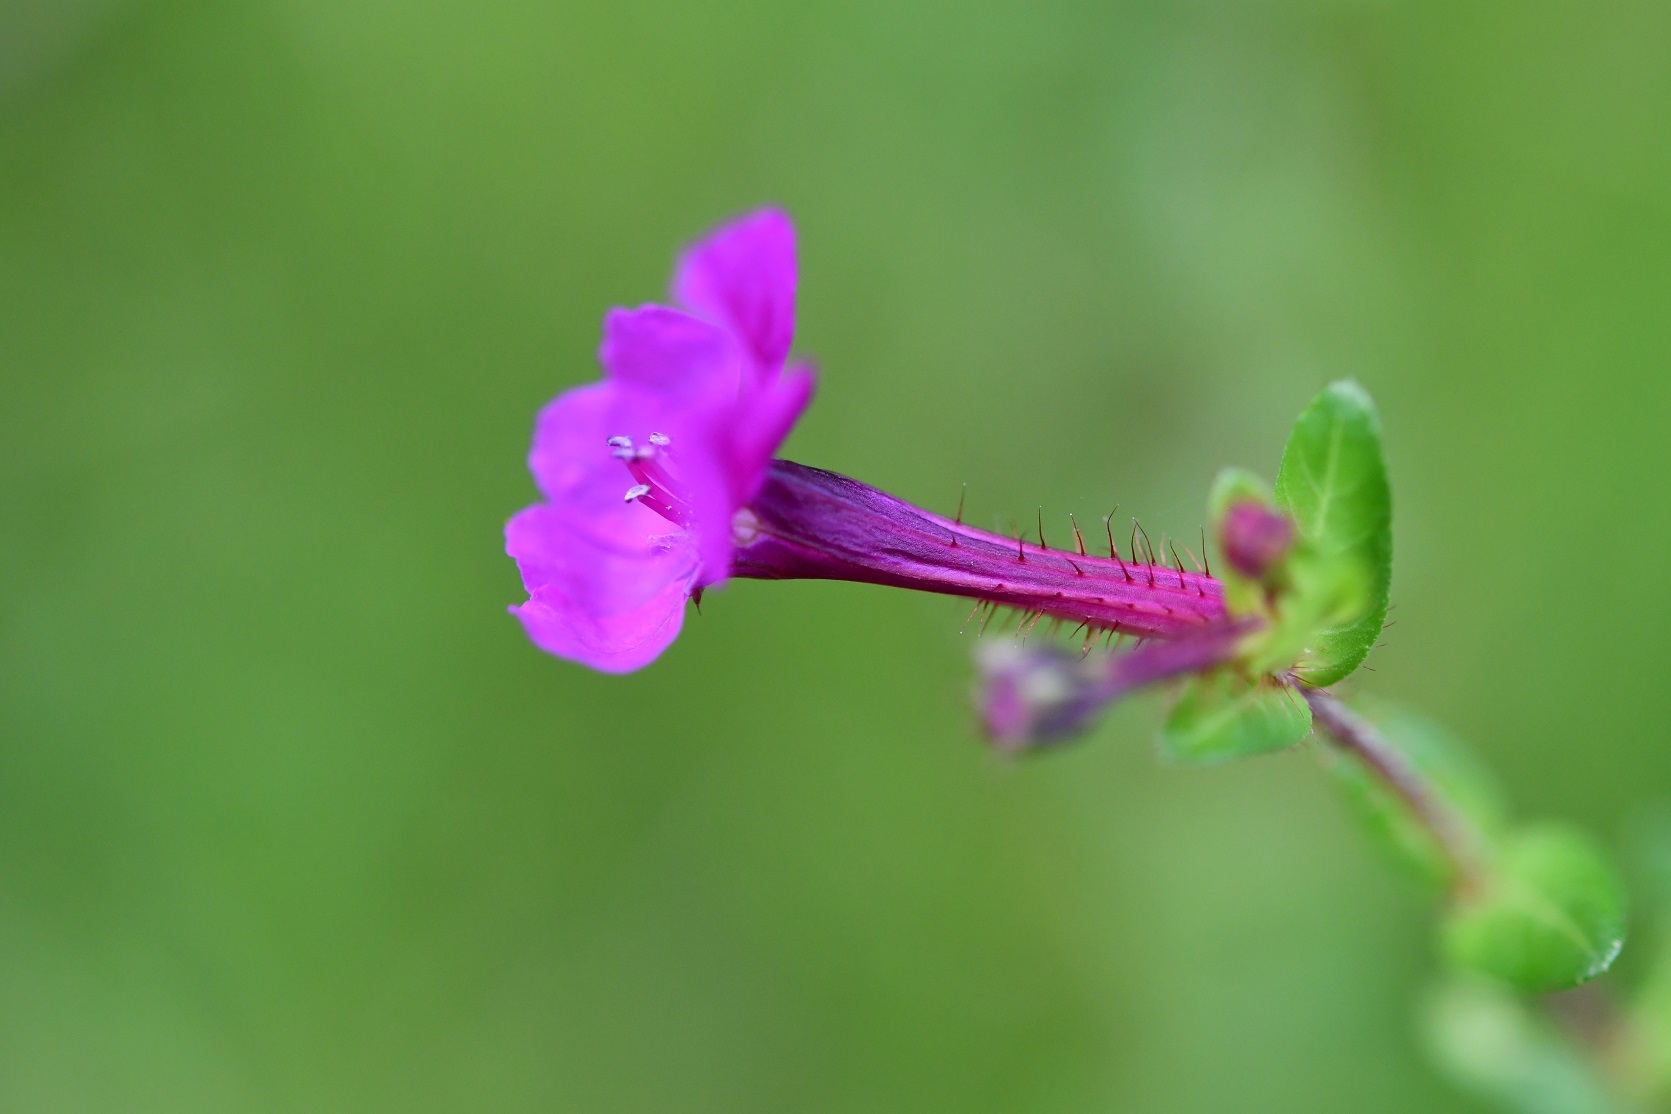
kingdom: Plantae
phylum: Tracheophyta
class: Magnoliopsida
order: Myrtales
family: Lythraceae
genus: Cuphea
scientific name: Cuphea aequipetala
